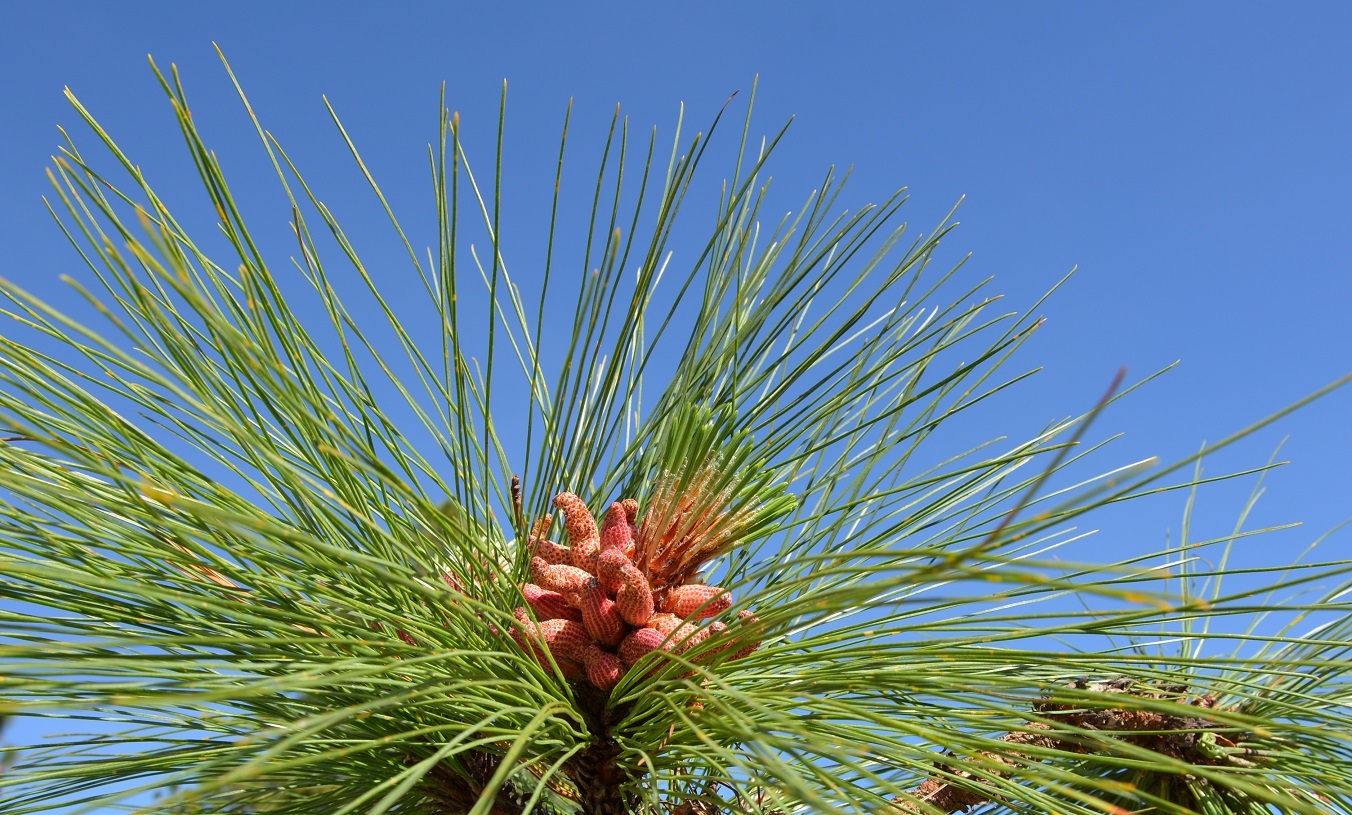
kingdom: Plantae
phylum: Tracheophyta
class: Pinopsida
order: Pinales
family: Pinaceae
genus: Pinus
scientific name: Pinus montezumae
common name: Montezuma pine
